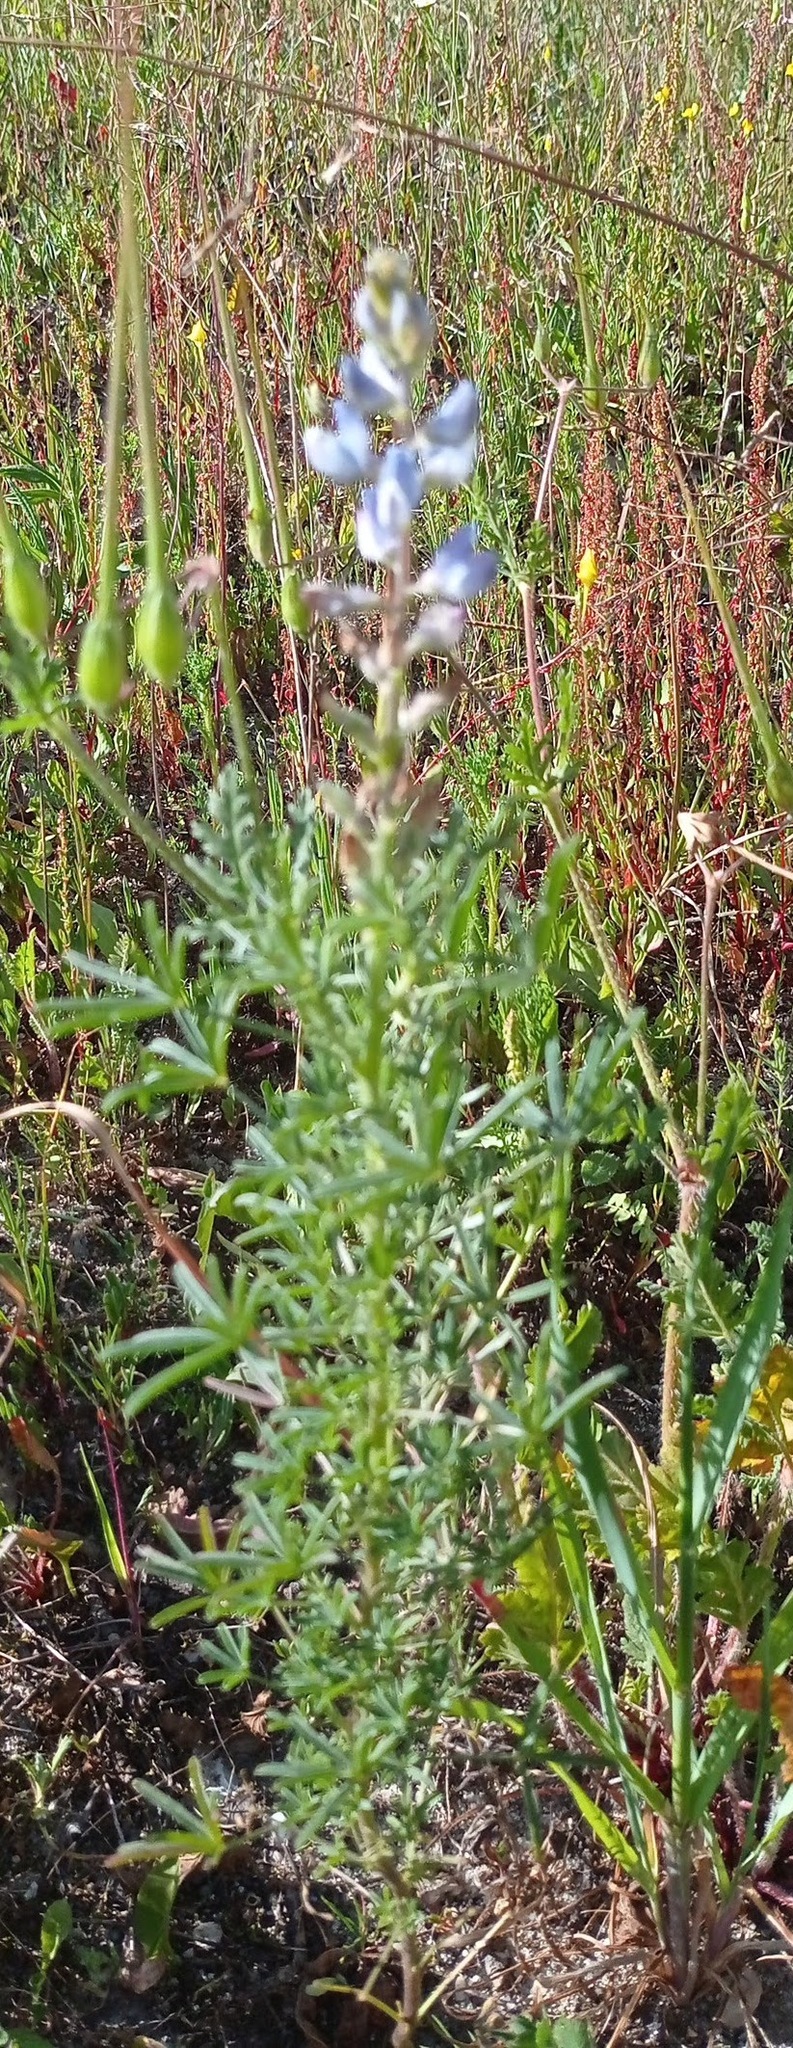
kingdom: Plantae
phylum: Tracheophyta
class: Magnoliopsida
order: Fabales
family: Fabaceae
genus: Lupinus
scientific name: Lupinus angustifolius
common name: Narrow-leaved lupin
